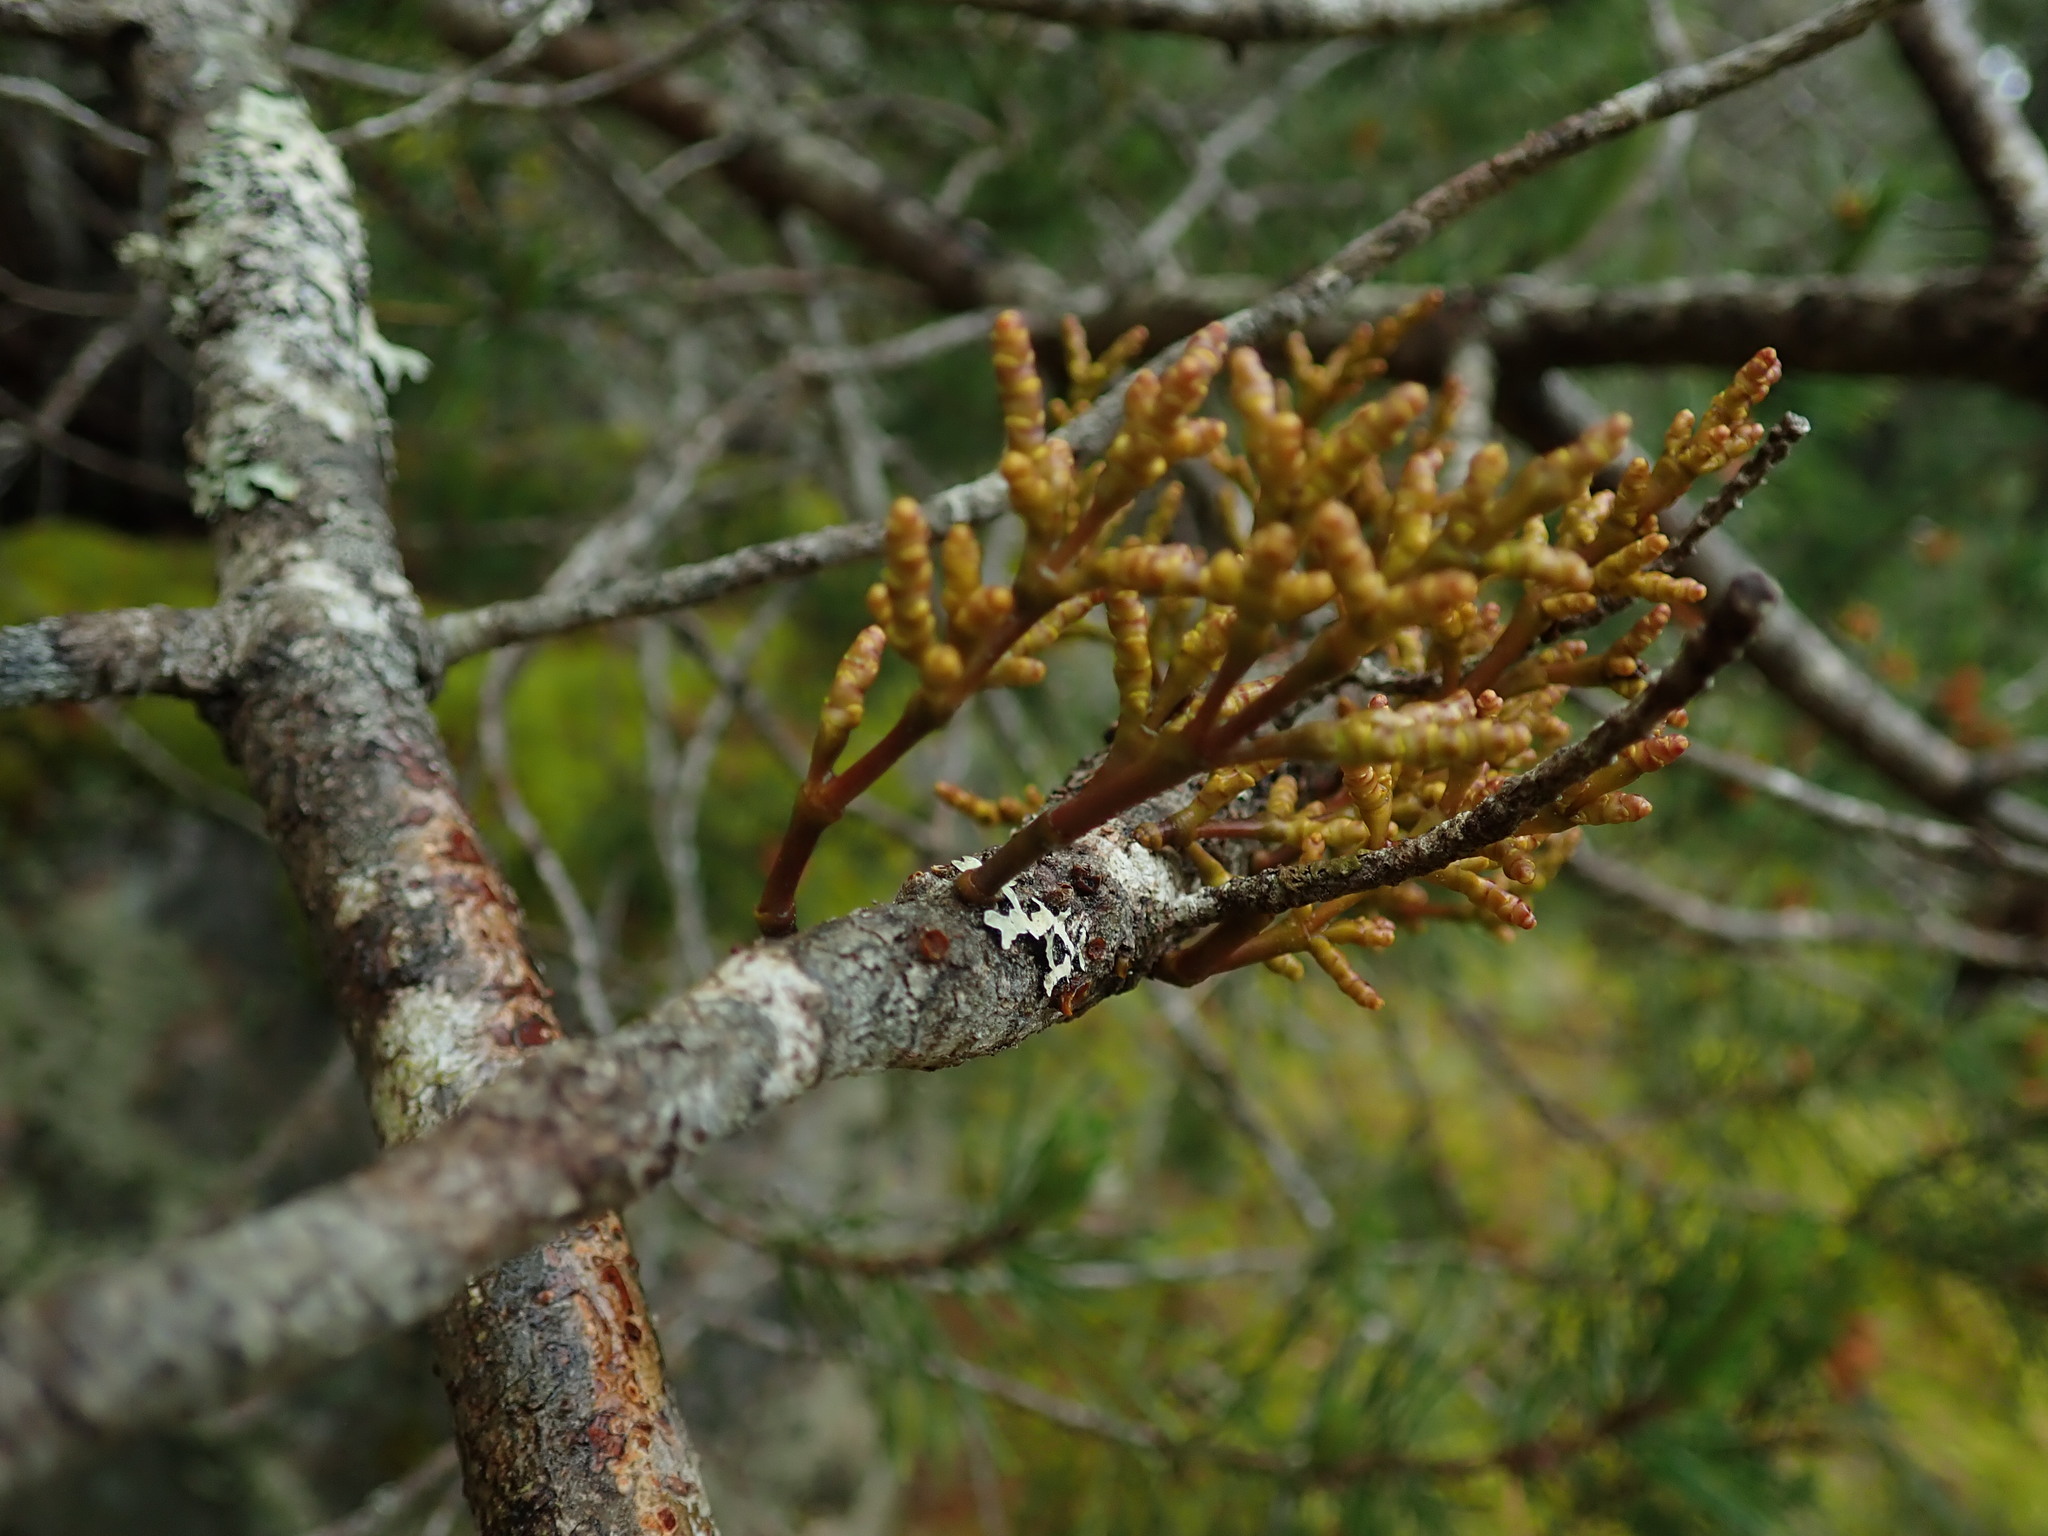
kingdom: Plantae
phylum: Tracheophyta
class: Magnoliopsida
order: Santalales
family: Viscaceae
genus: Arceuthobium
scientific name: Arceuthobium campylopodum
